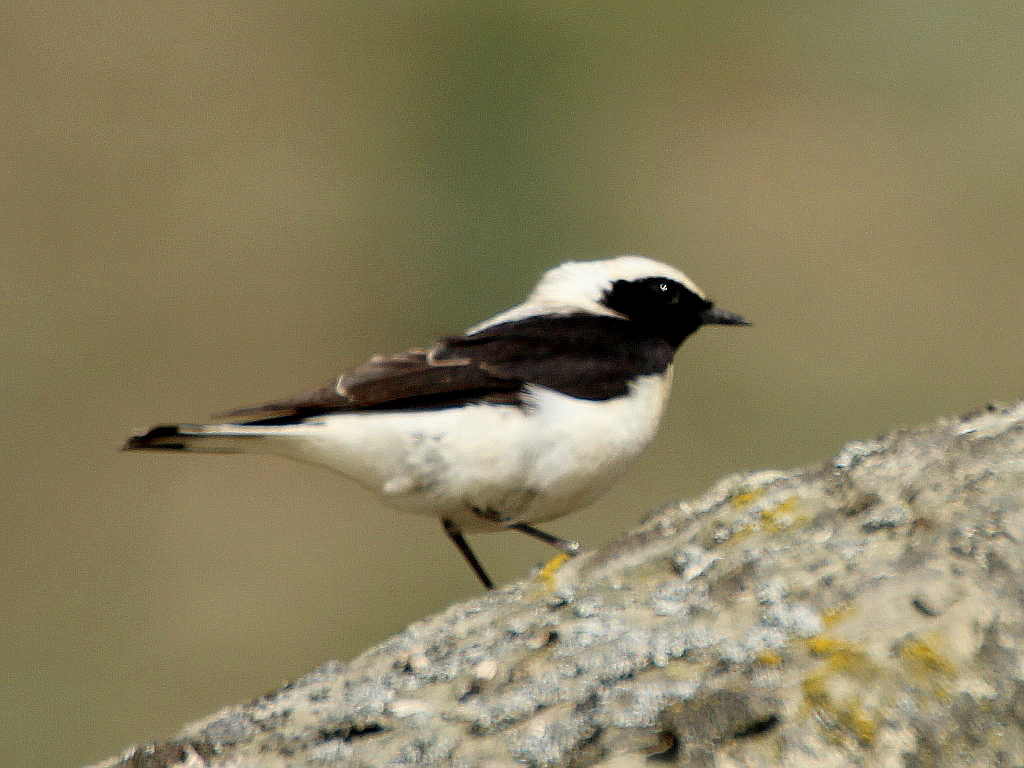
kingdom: Animalia
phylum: Chordata
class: Aves
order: Passeriformes
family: Muscicapidae
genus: Oenanthe
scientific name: Oenanthe hispanica
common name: Black-eared wheatear
